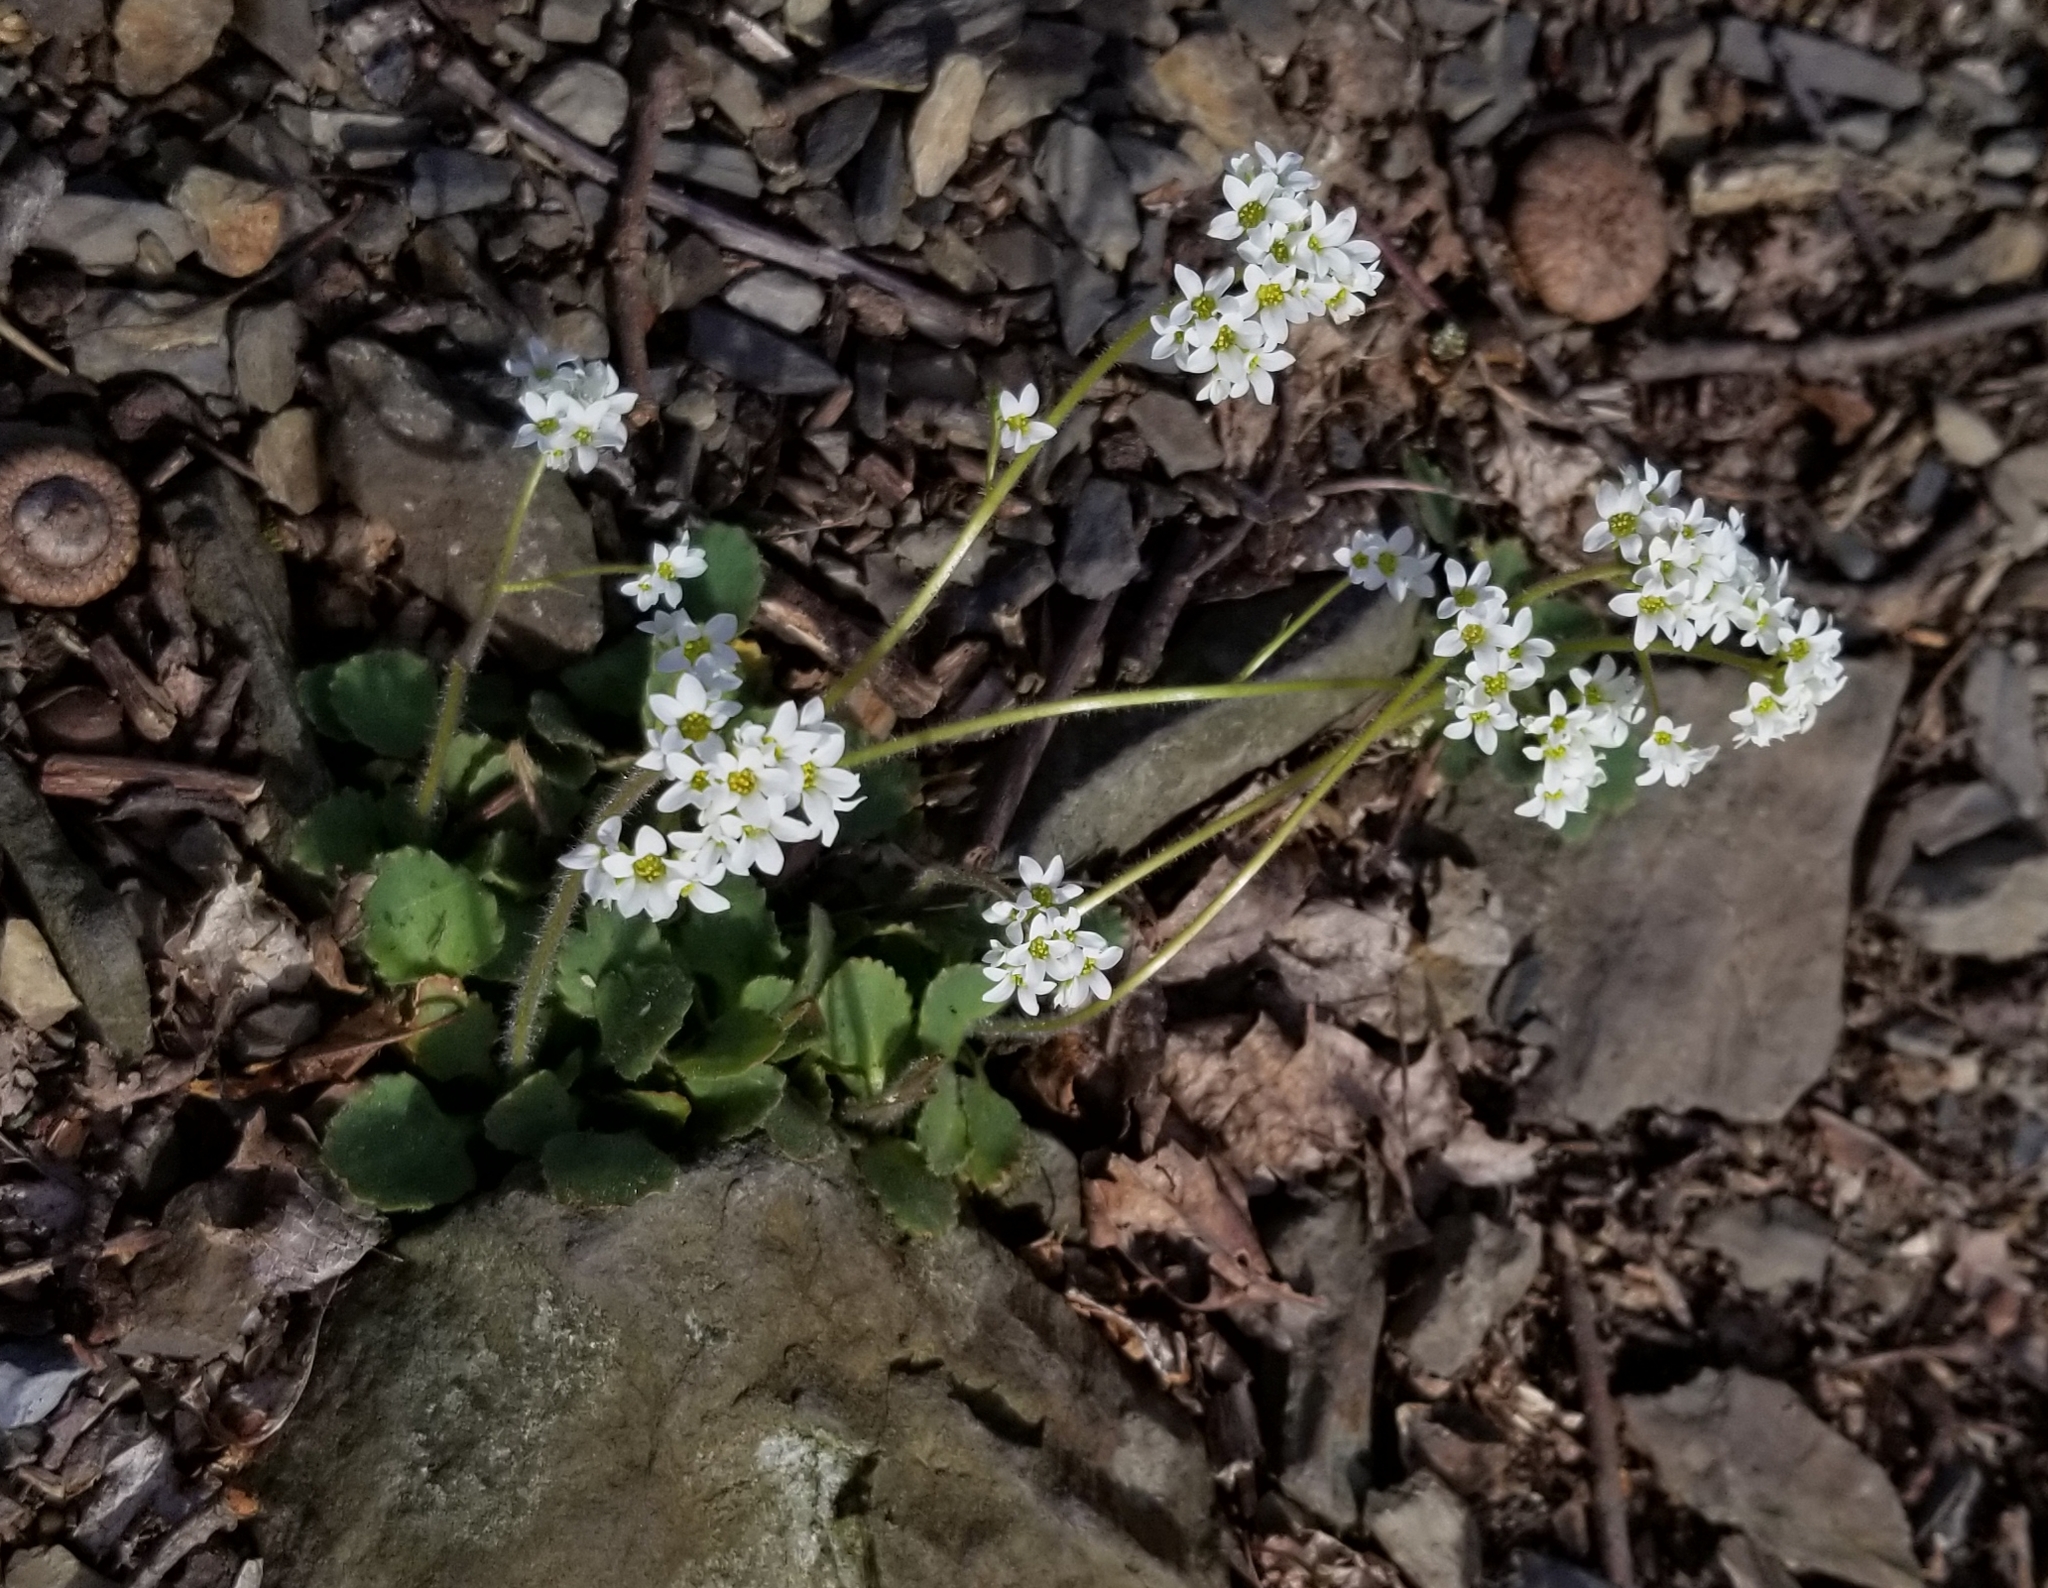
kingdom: Plantae
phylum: Tracheophyta
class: Magnoliopsida
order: Saxifragales
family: Saxifragaceae
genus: Micranthes
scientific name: Micranthes virginiensis
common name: Early saxifrage
